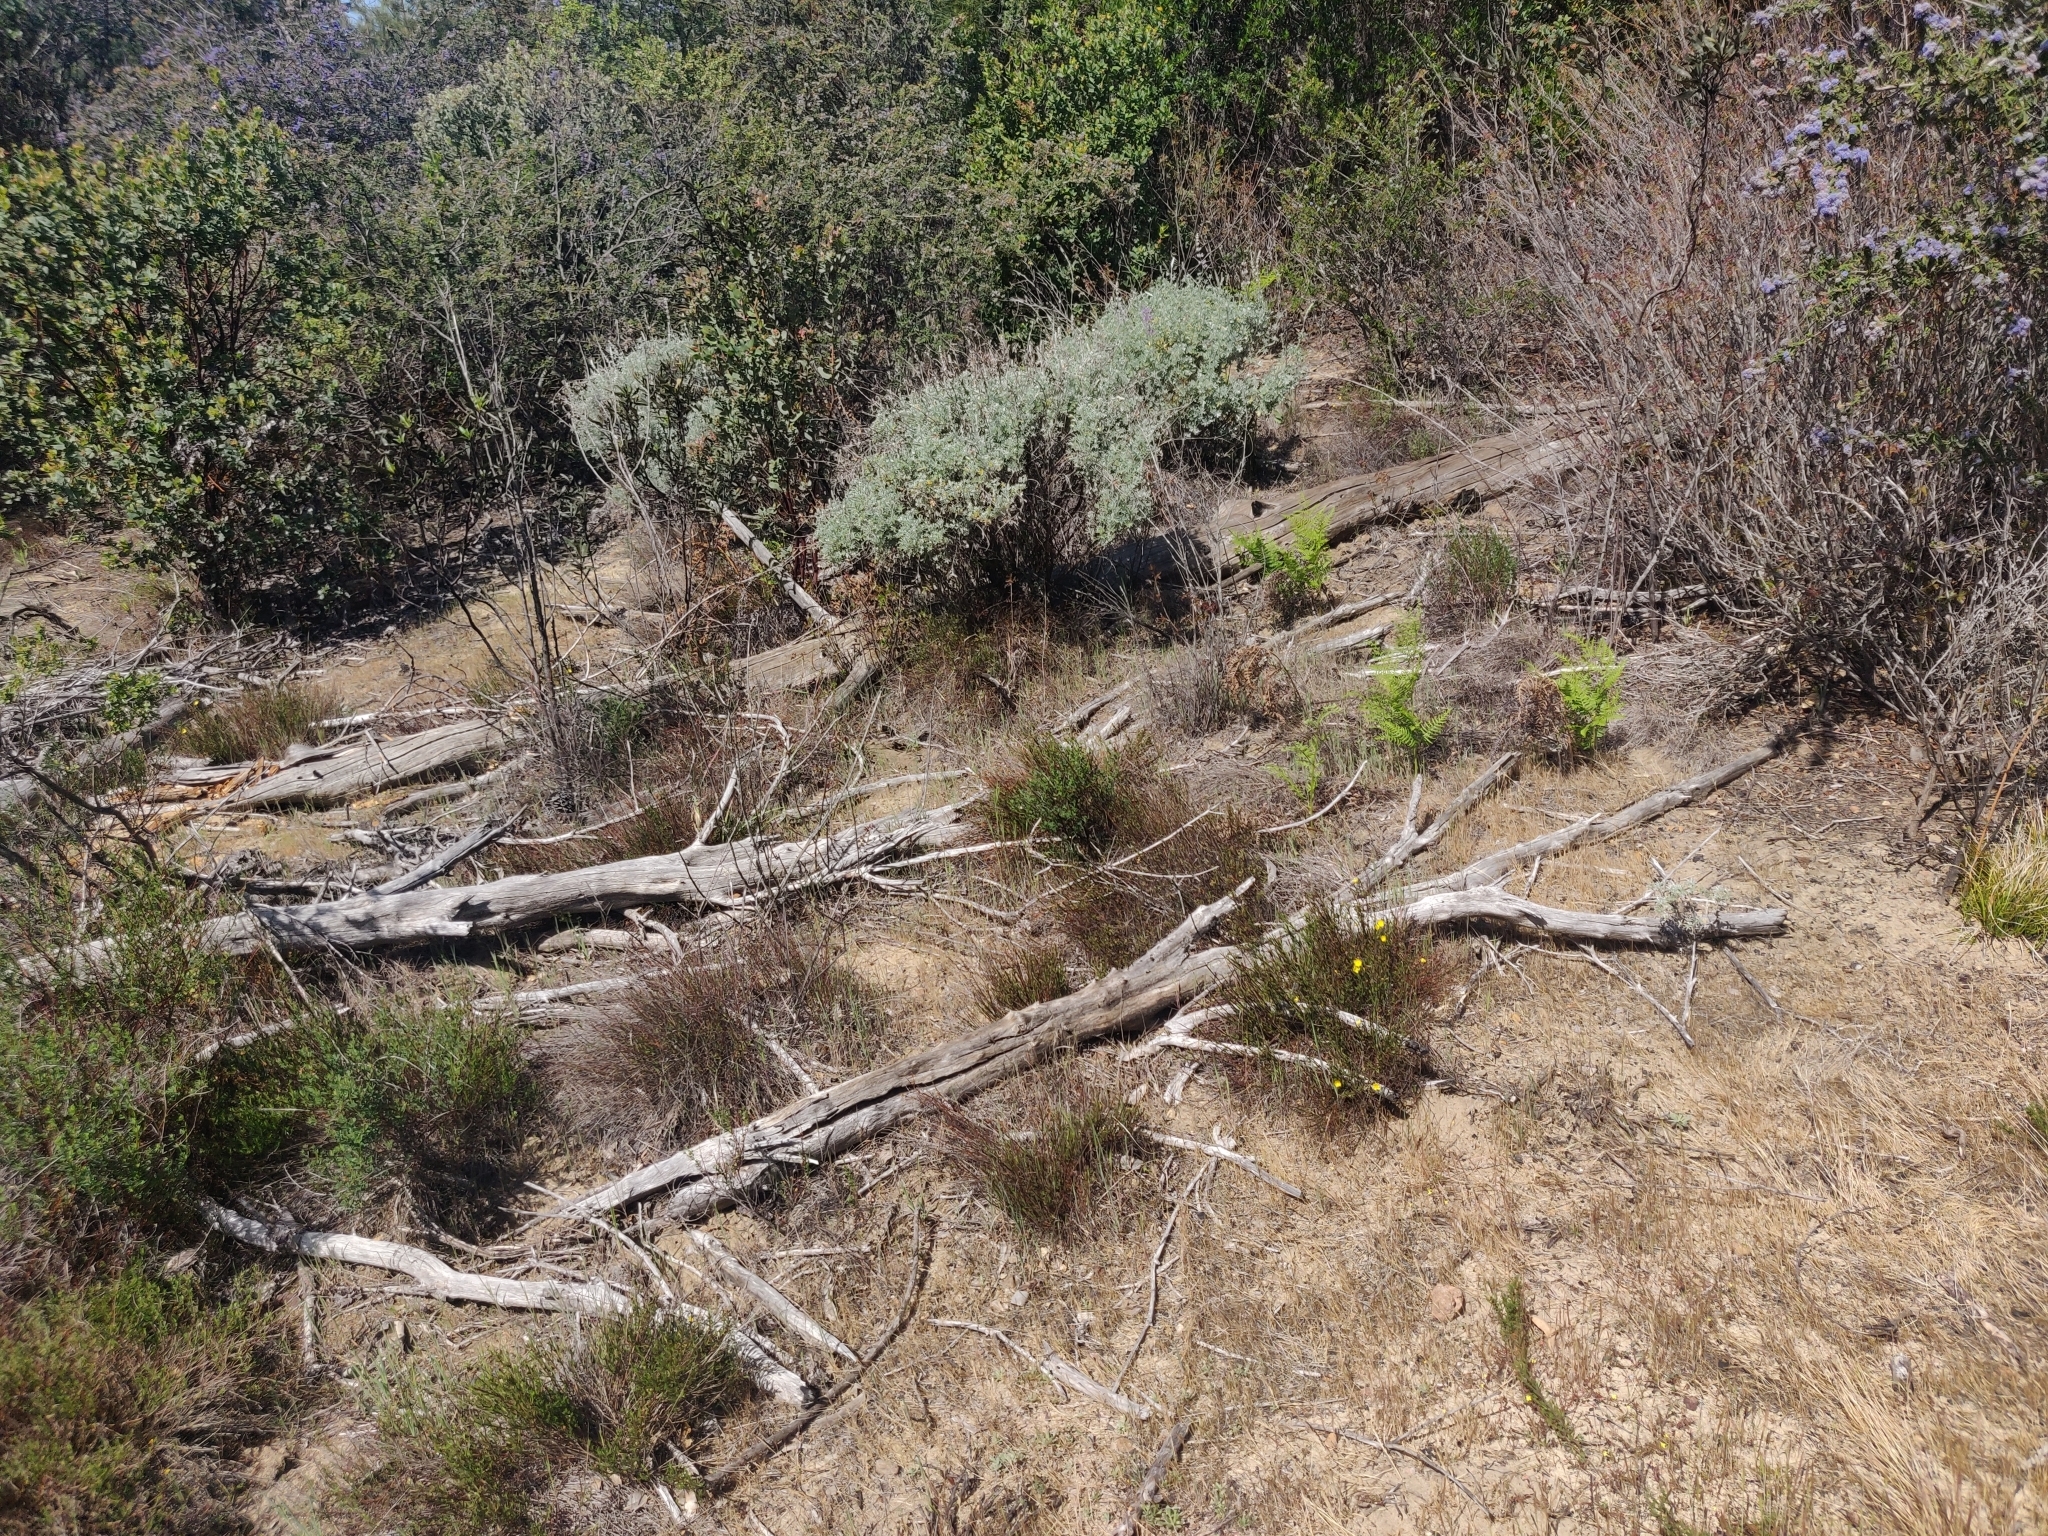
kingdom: Plantae
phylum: Tracheophyta
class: Magnoliopsida
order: Malvales
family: Cistaceae
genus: Crocanthemum
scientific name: Crocanthemum scoparium
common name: Broom-rose
